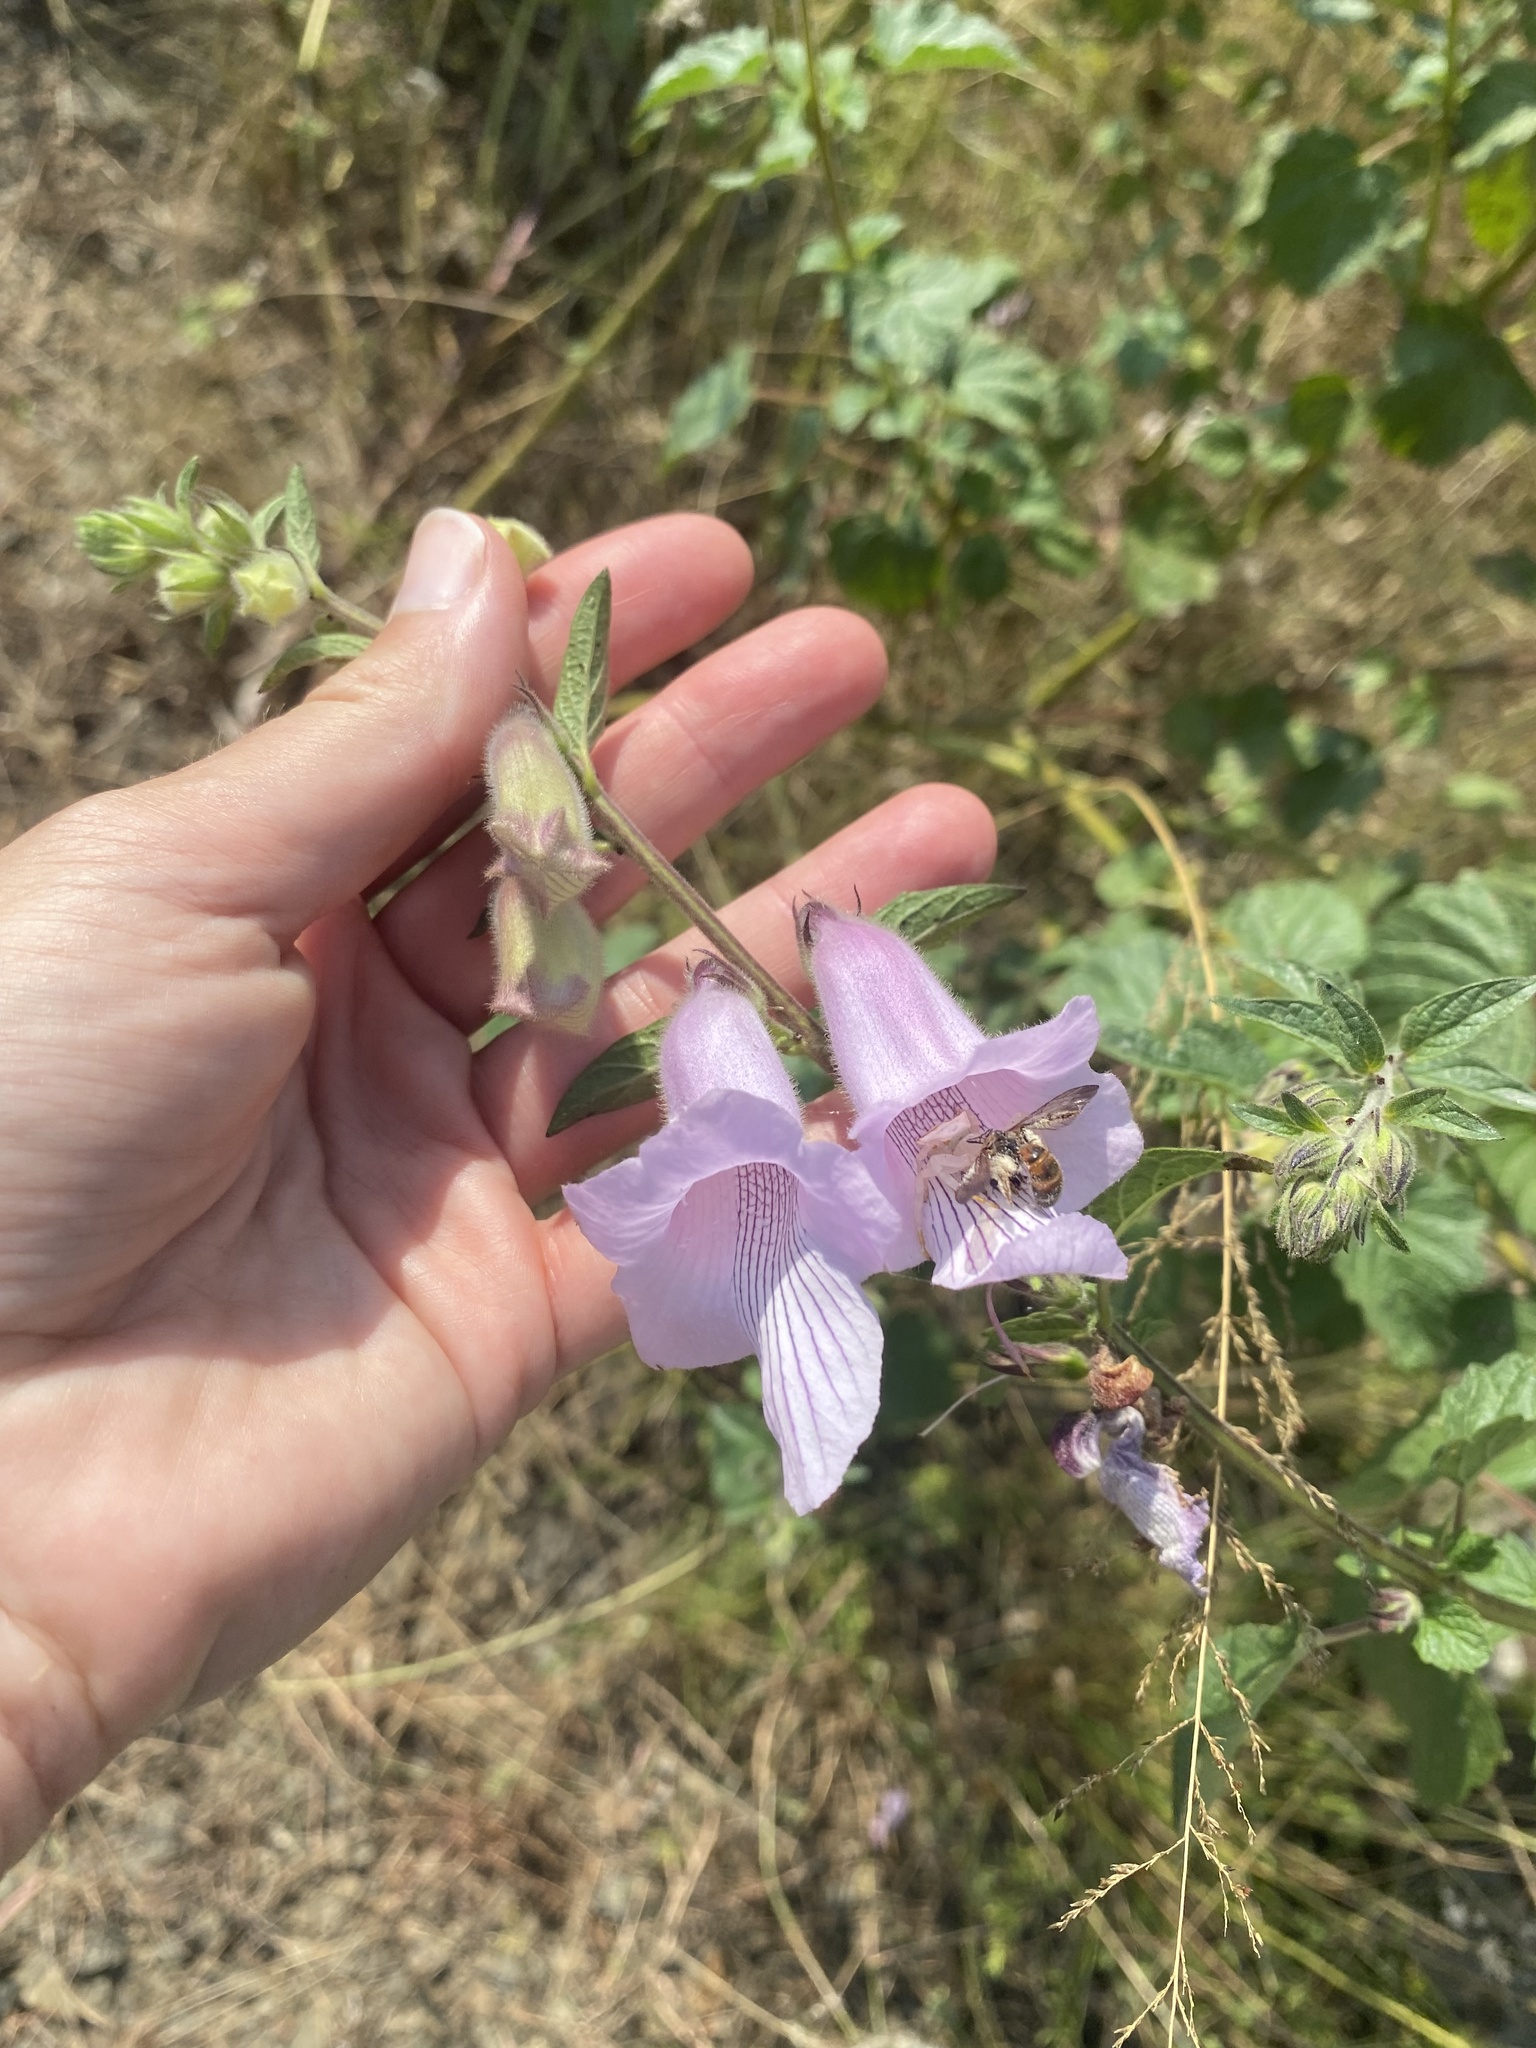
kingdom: Plantae
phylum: Tracheophyta
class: Magnoliopsida
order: Lamiales
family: Pedaliaceae
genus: Sesamum
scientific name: Sesamum trilobum
